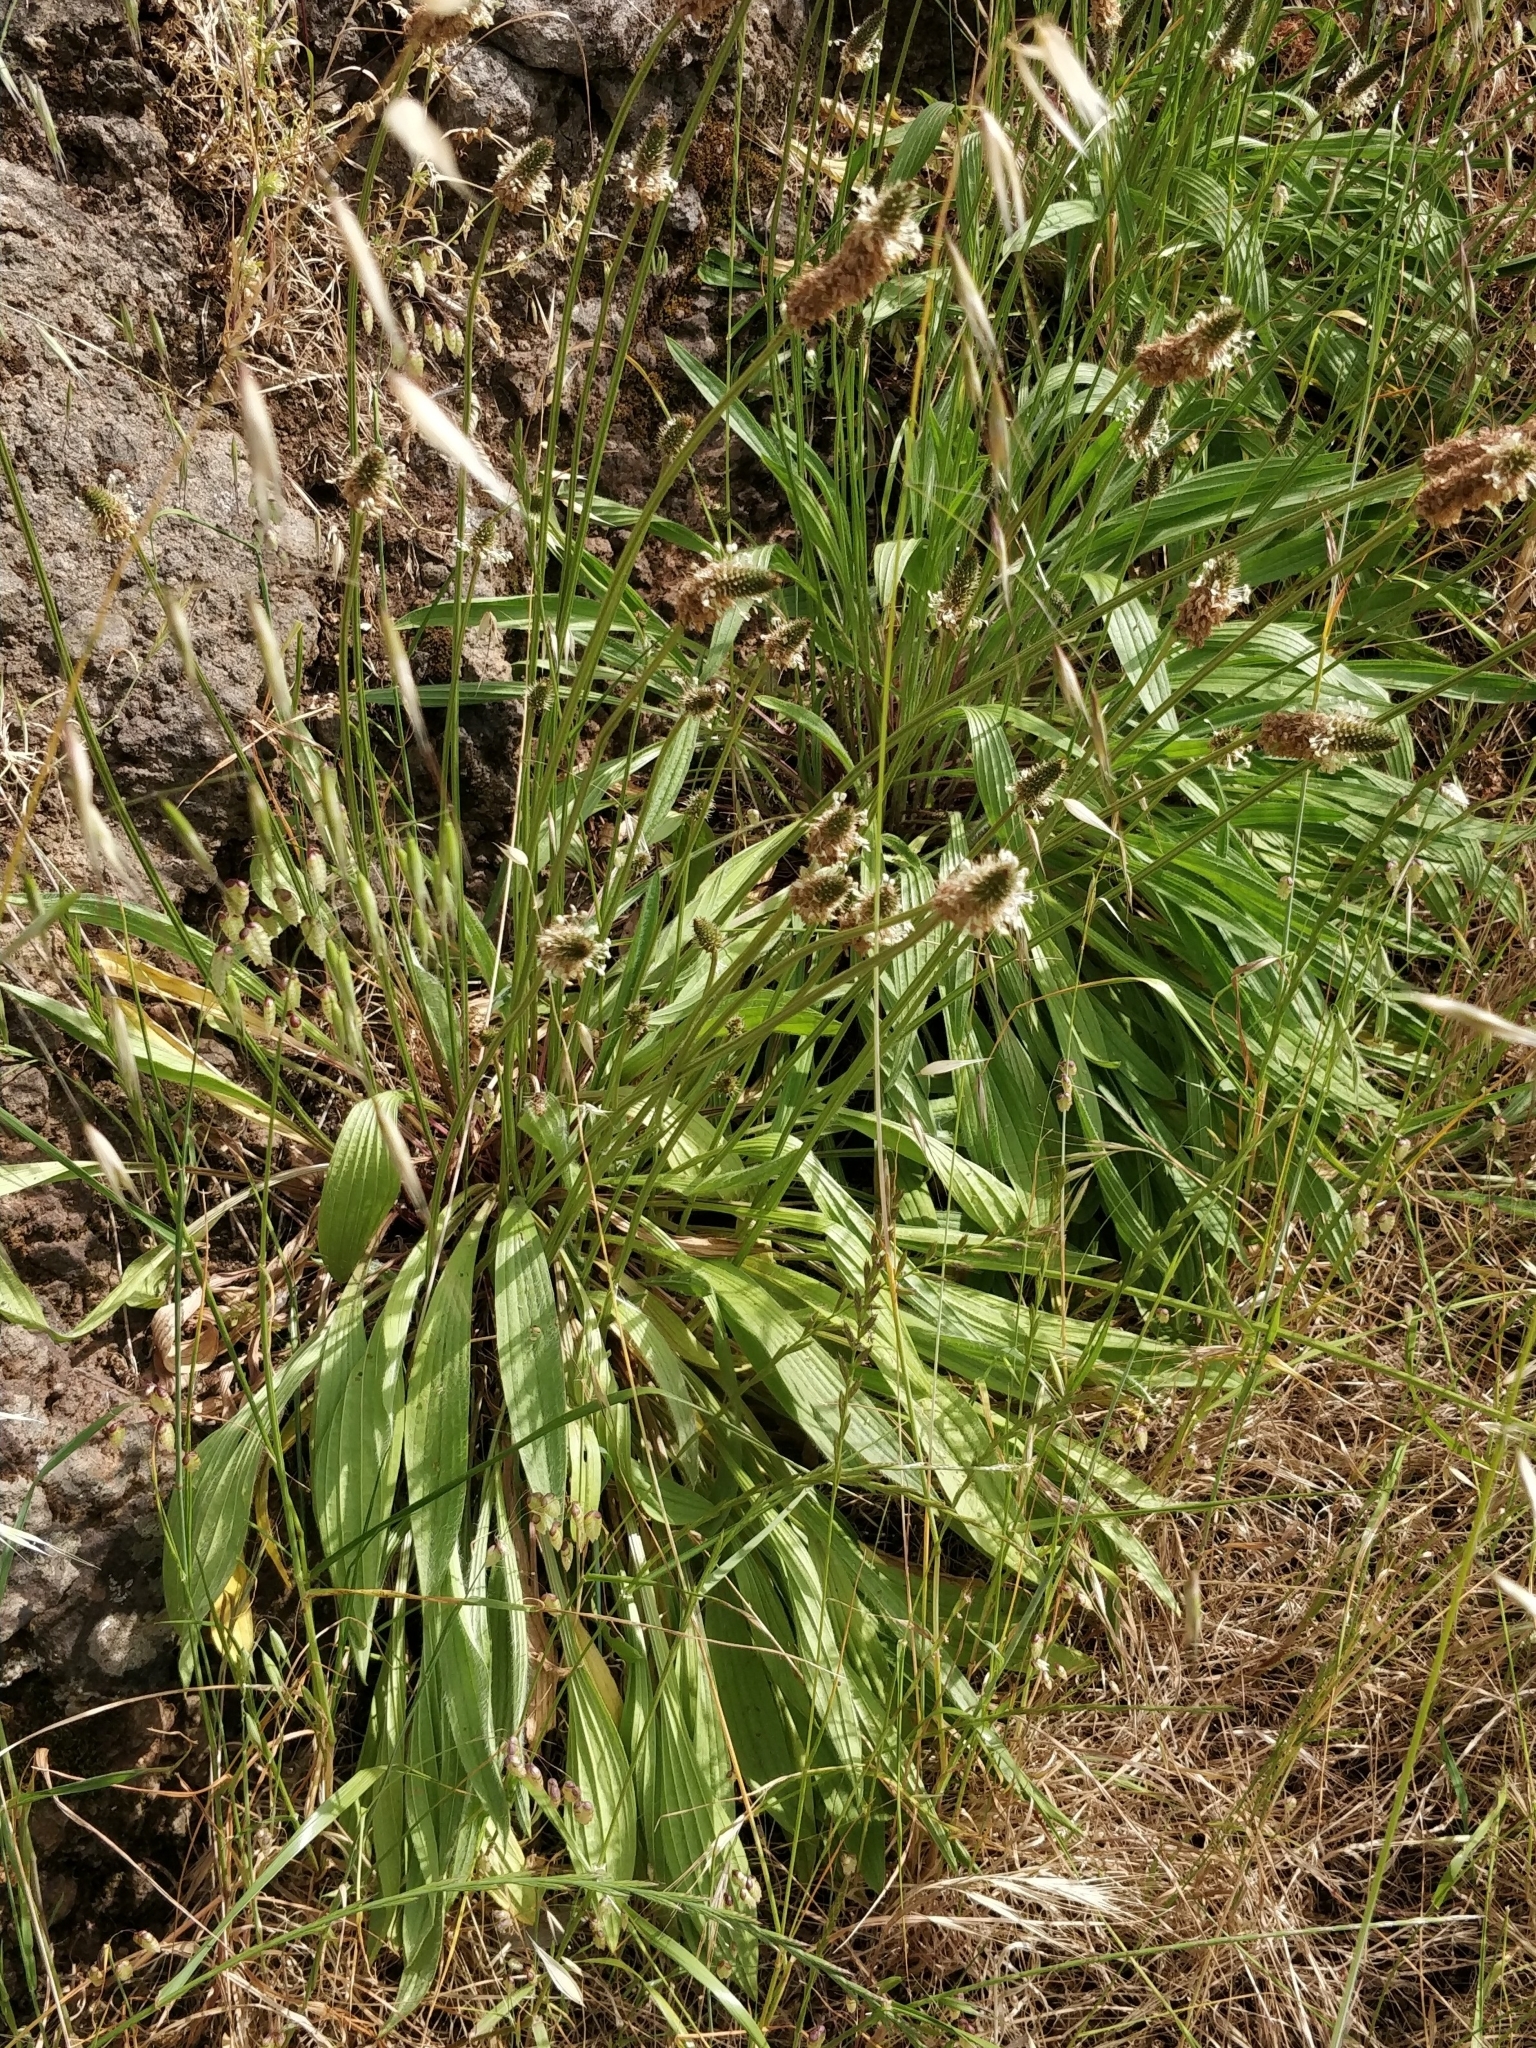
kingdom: Plantae
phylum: Tracheophyta
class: Magnoliopsida
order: Lamiales
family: Plantaginaceae
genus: Plantago
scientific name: Plantago lanceolata
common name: Ribwort plantain
